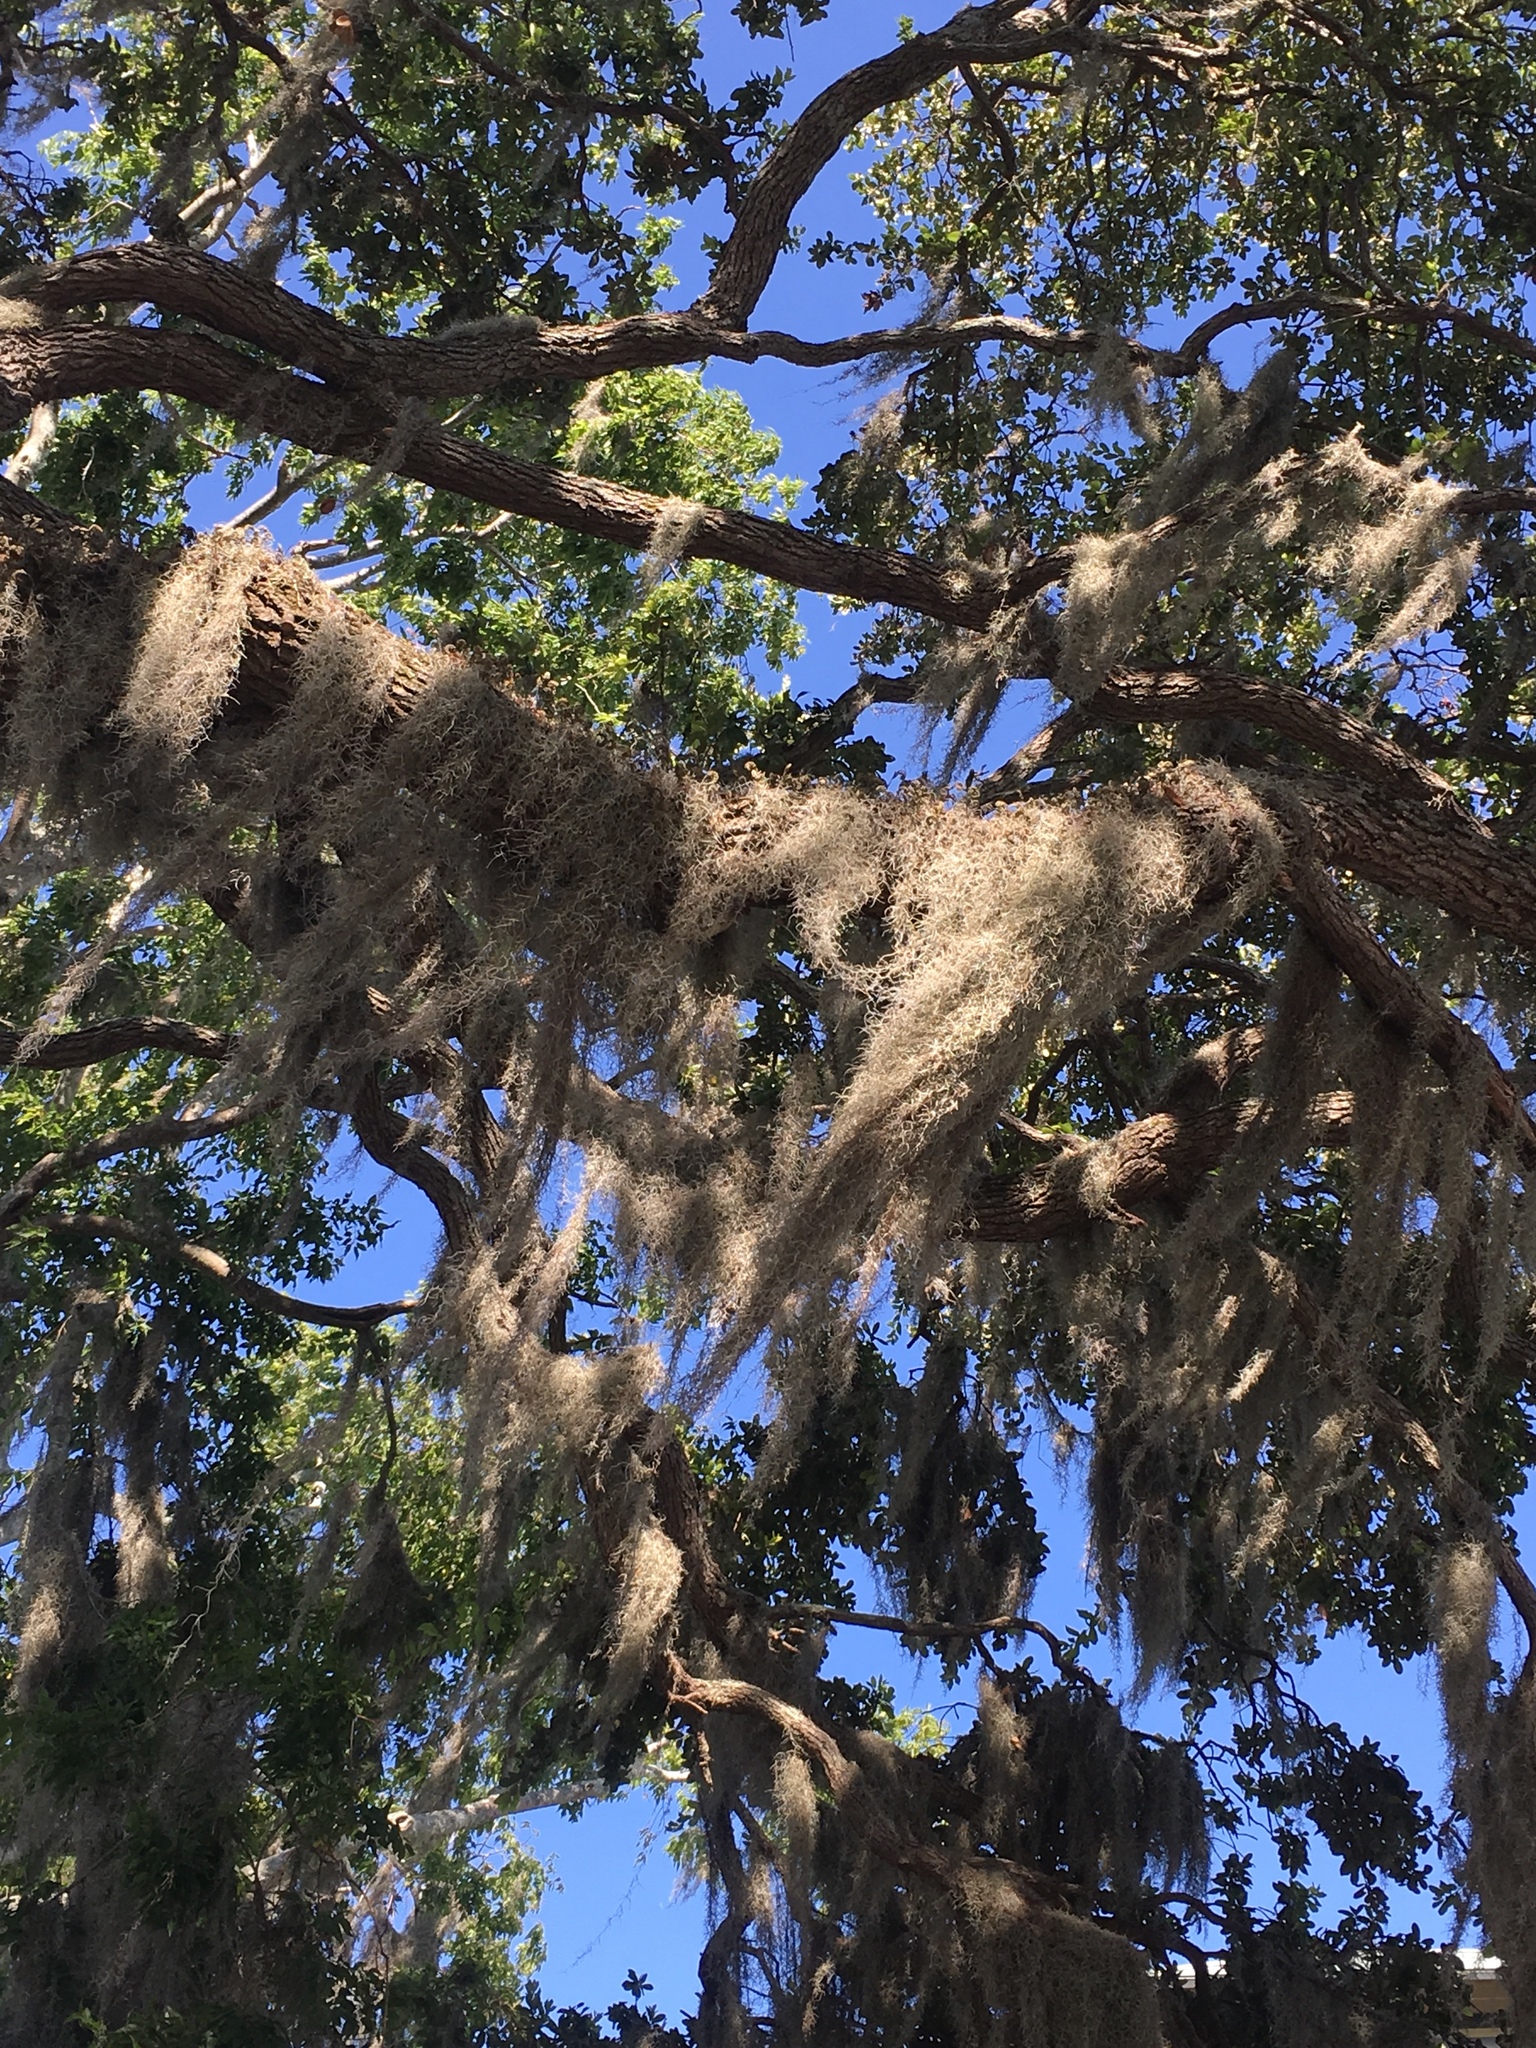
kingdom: Plantae
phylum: Tracheophyta
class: Liliopsida
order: Poales
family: Bromeliaceae
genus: Tillandsia
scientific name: Tillandsia usneoides
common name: Spanish moss
